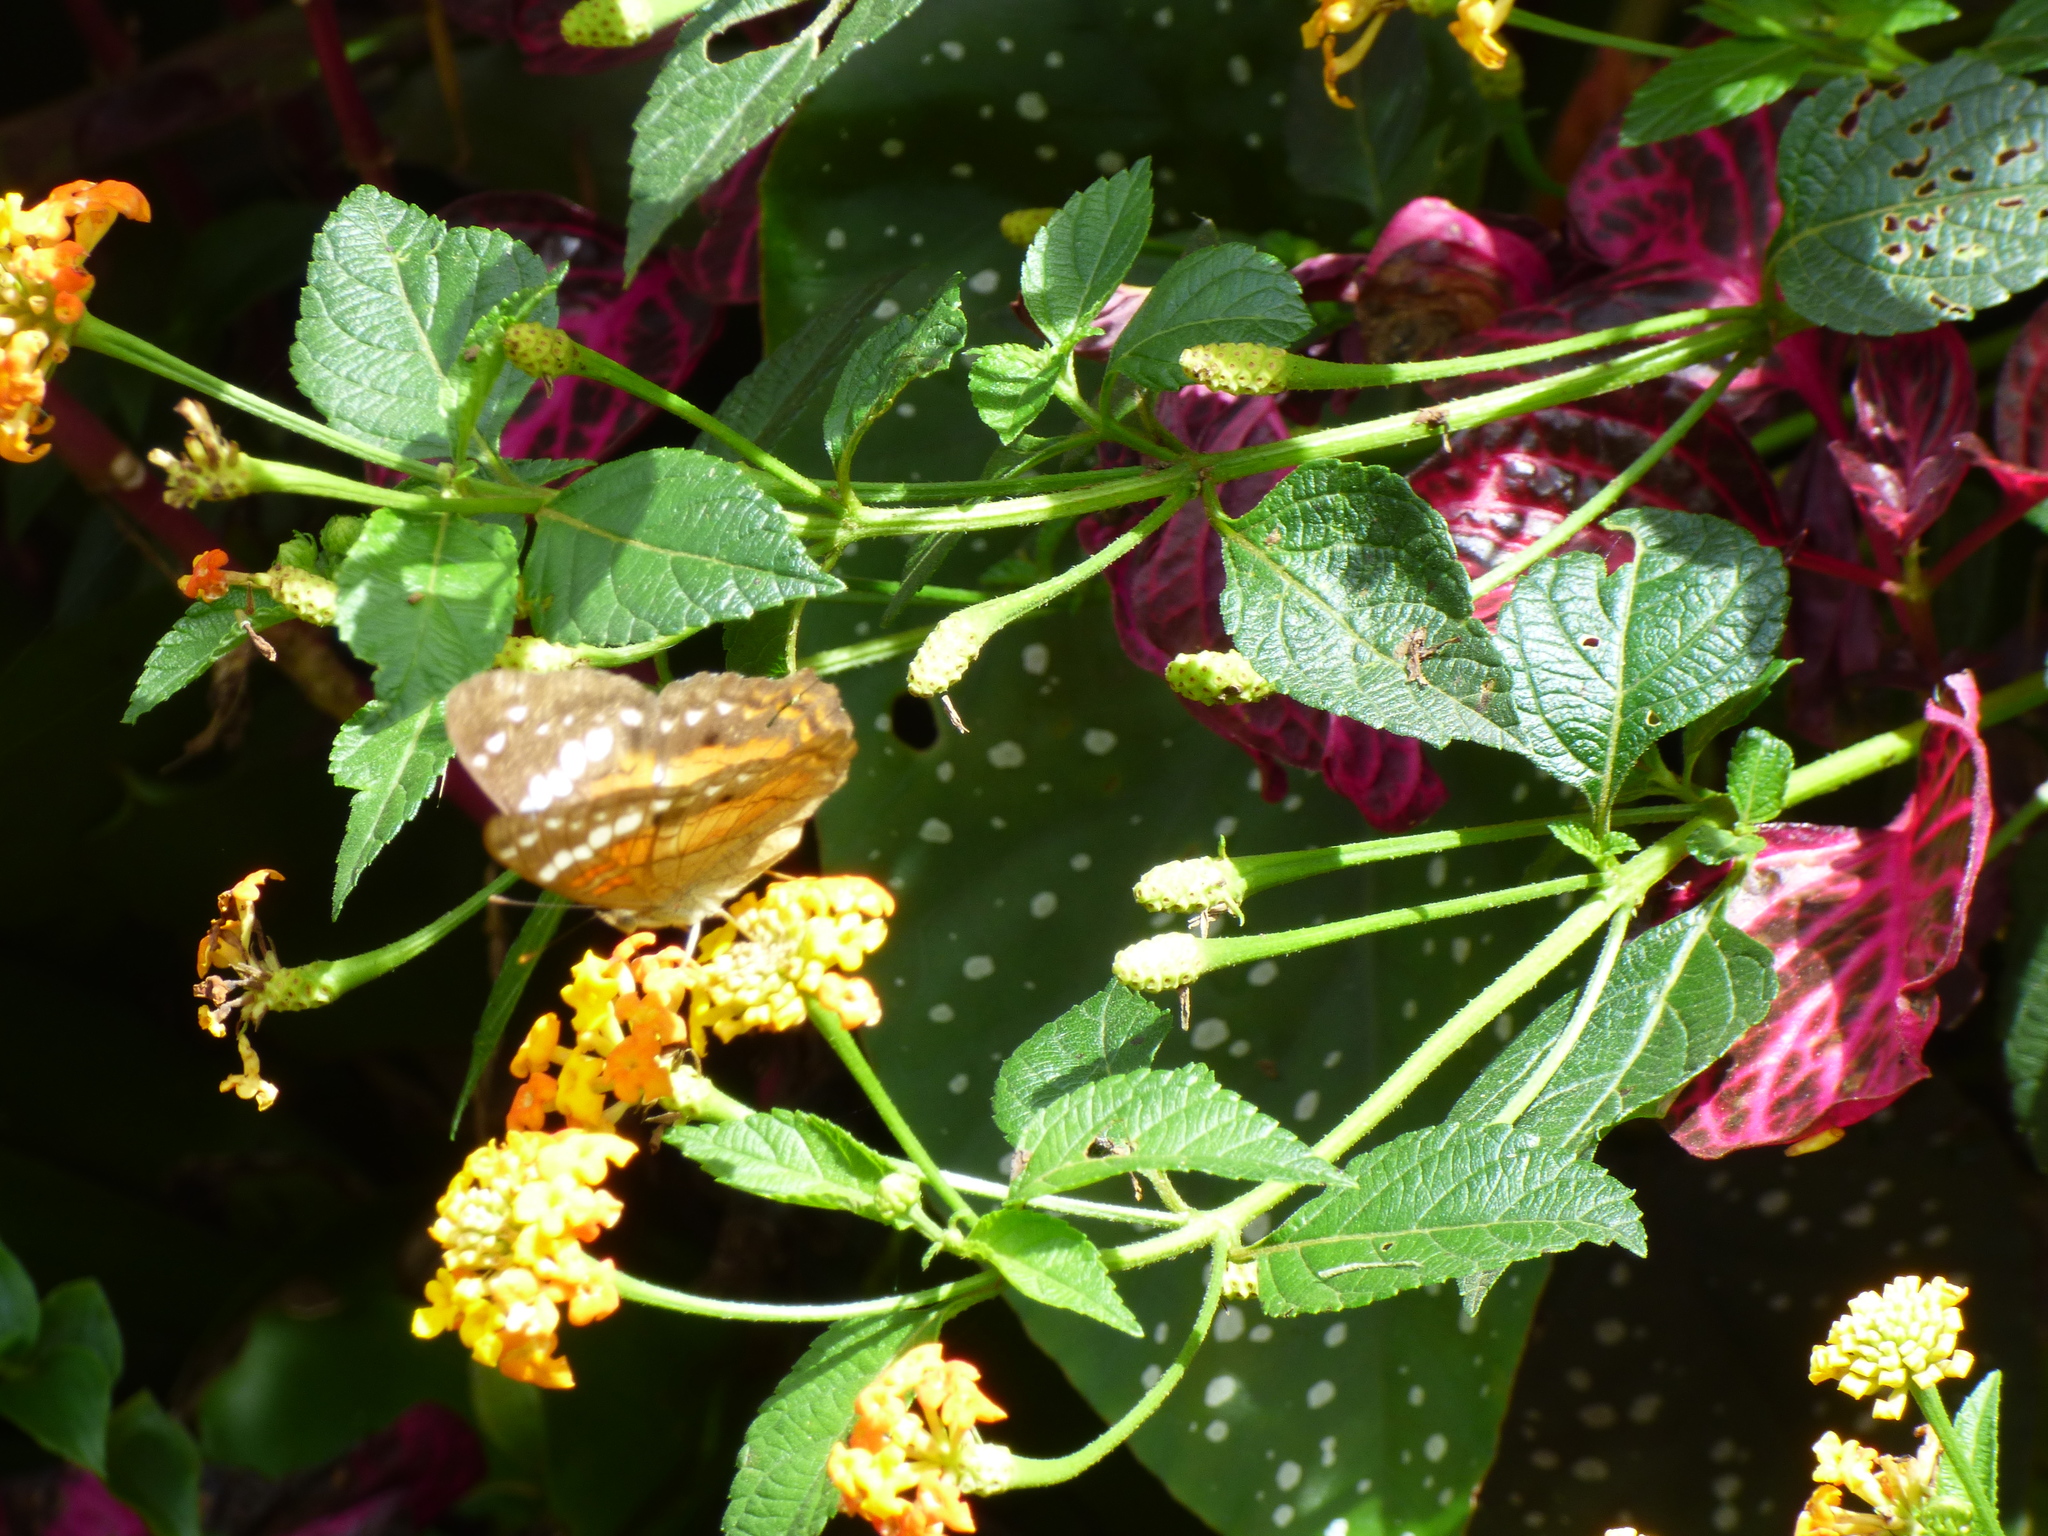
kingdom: Animalia
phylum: Arthropoda
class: Insecta
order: Lepidoptera
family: Nymphalidae
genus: Anartia
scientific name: Anartia amathea
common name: Red peacock
